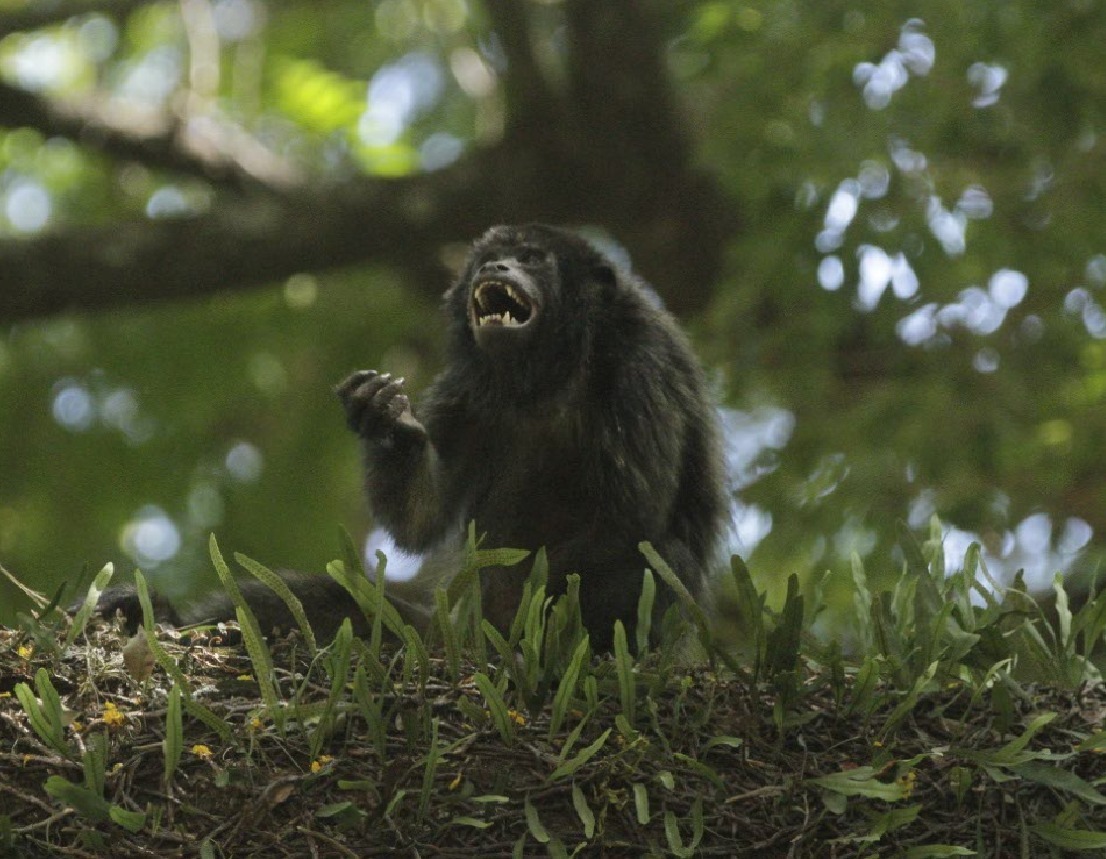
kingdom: Animalia
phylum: Chordata
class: Mammalia
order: Primates
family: Atelidae
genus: Alouatta
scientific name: Alouatta caraya
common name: Black howler
